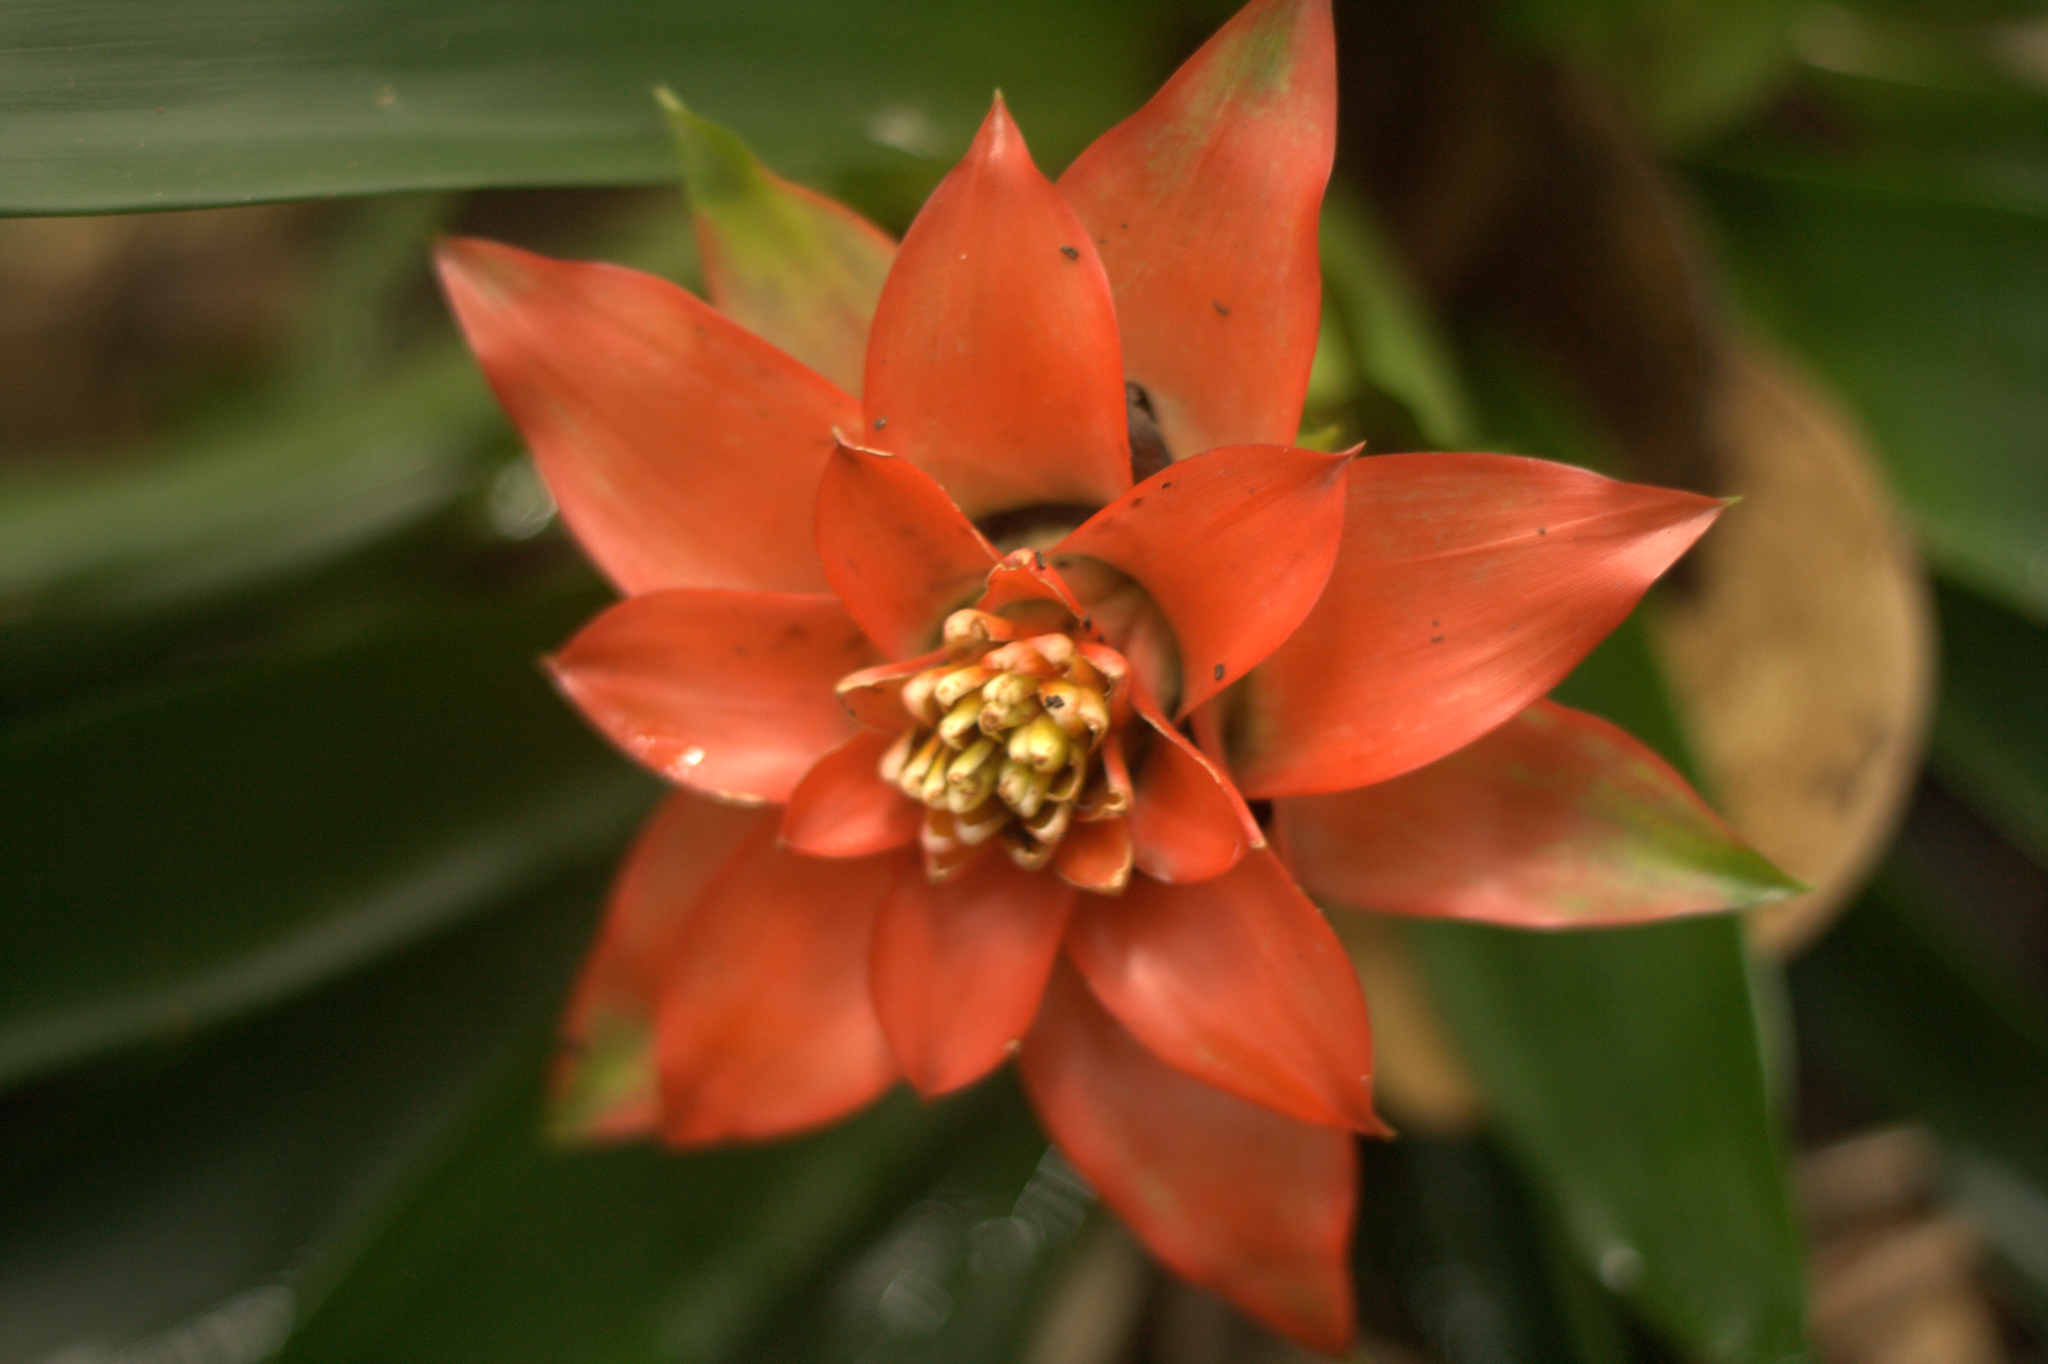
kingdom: Plantae
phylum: Tracheophyta
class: Liliopsida
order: Poales
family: Bromeliaceae
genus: Guzmania
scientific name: Guzmania lingulata
